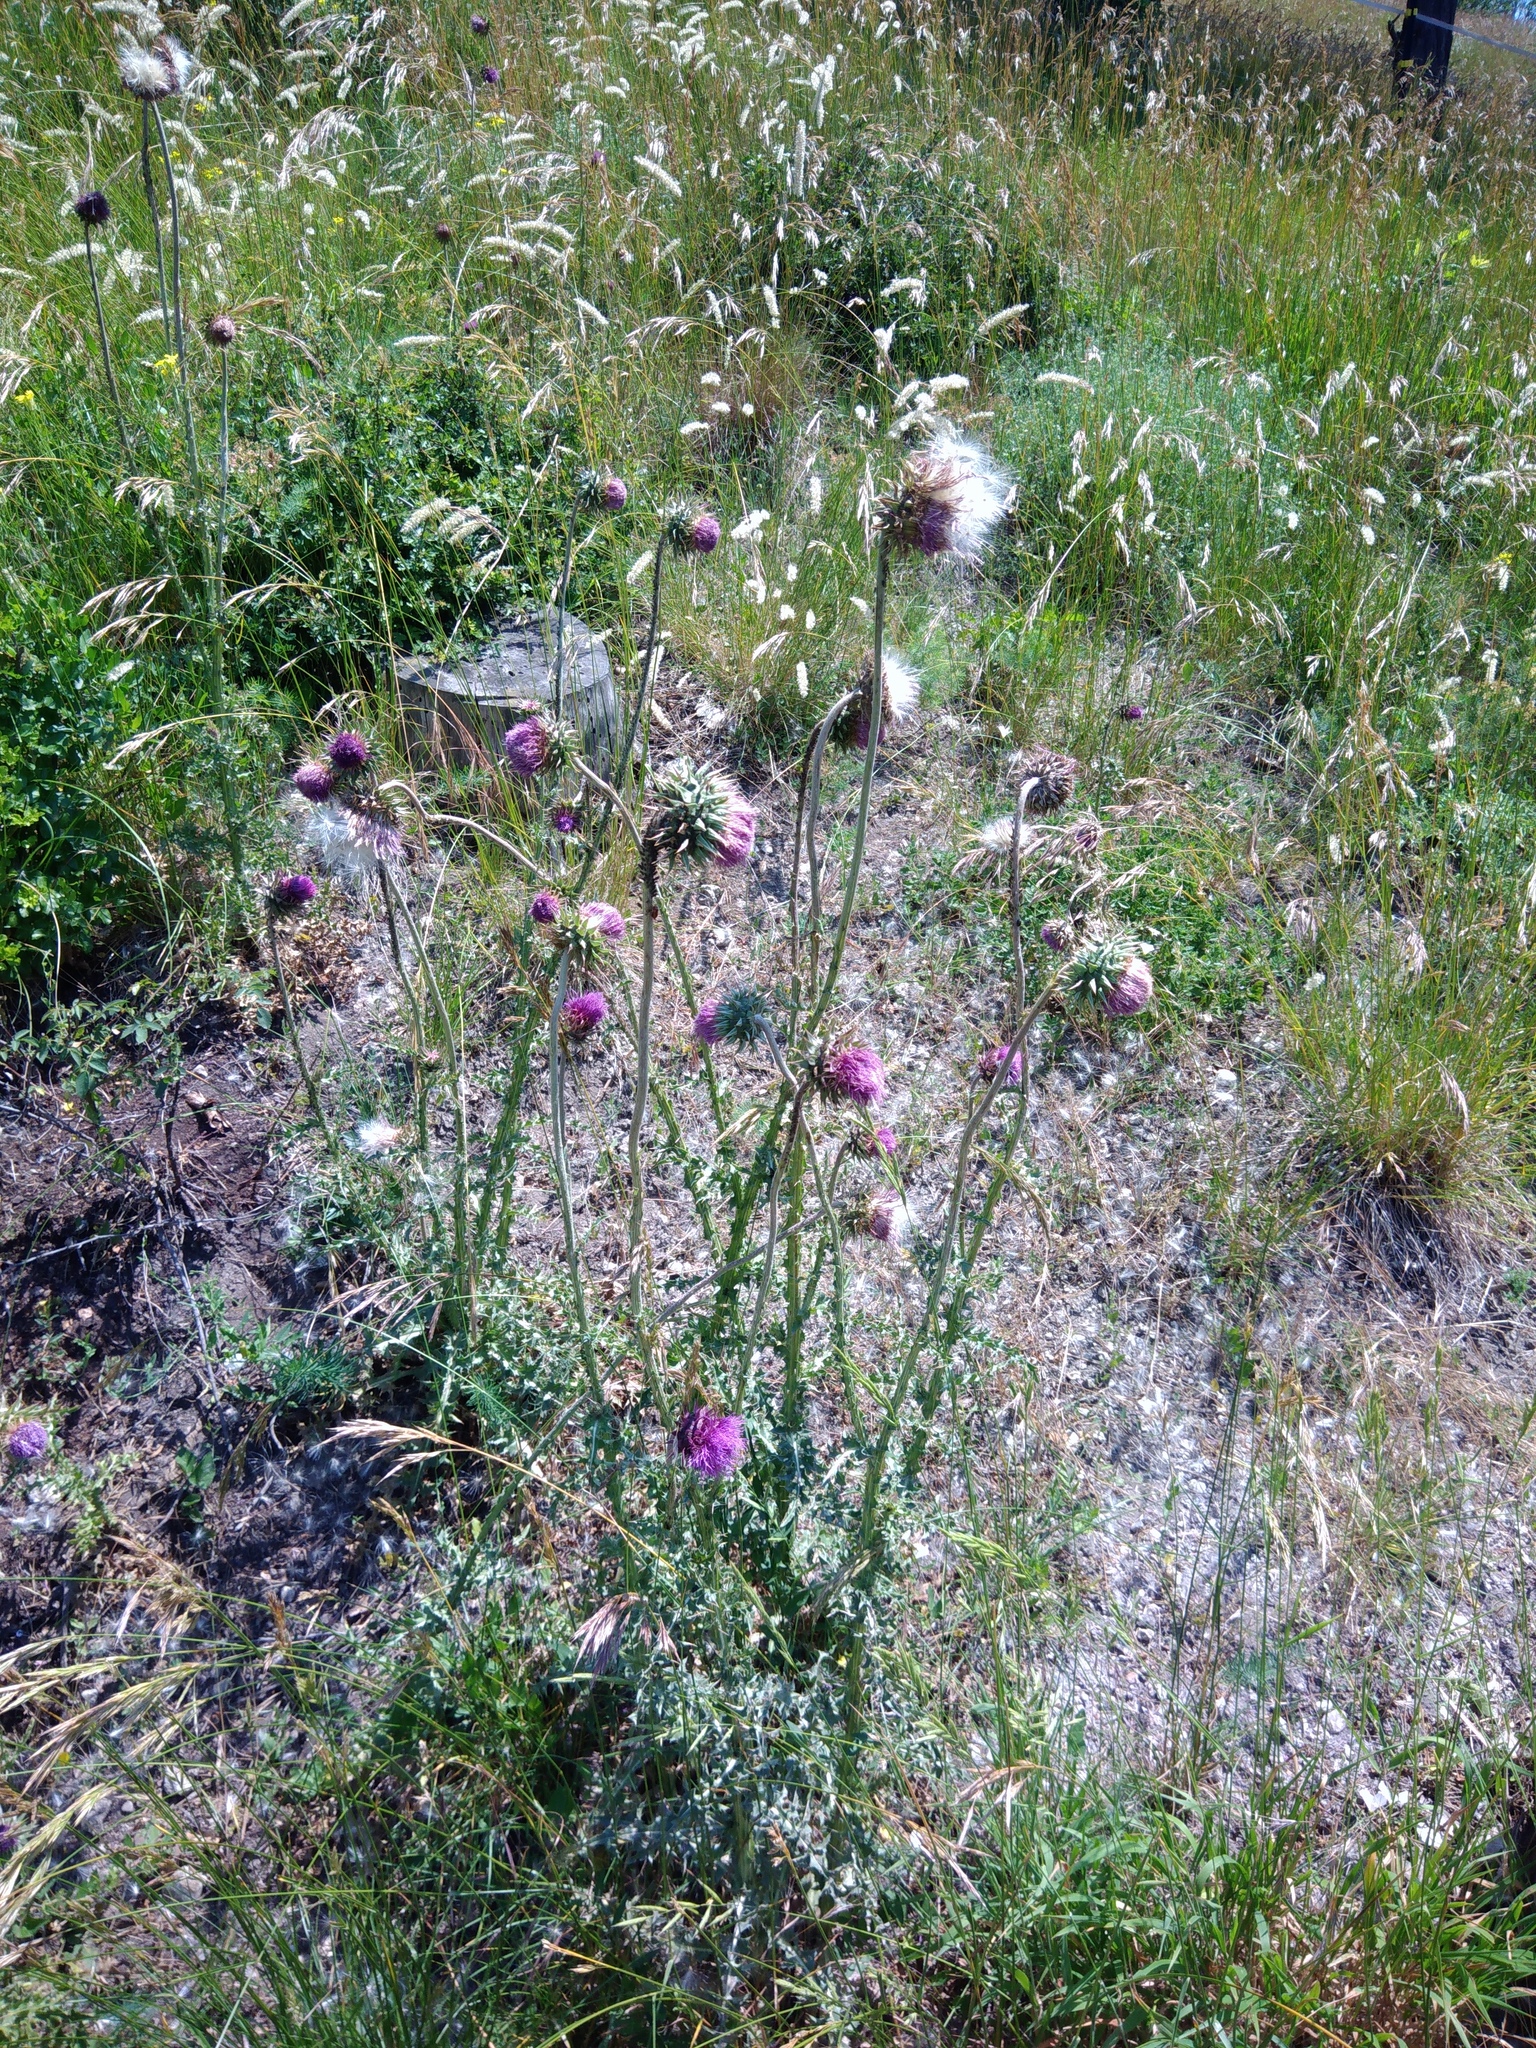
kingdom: Plantae
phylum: Tracheophyta
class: Magnoliopsida
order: Asterales
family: Asteraceae
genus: Carduus
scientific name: Carduus nutans
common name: Musk thistle
